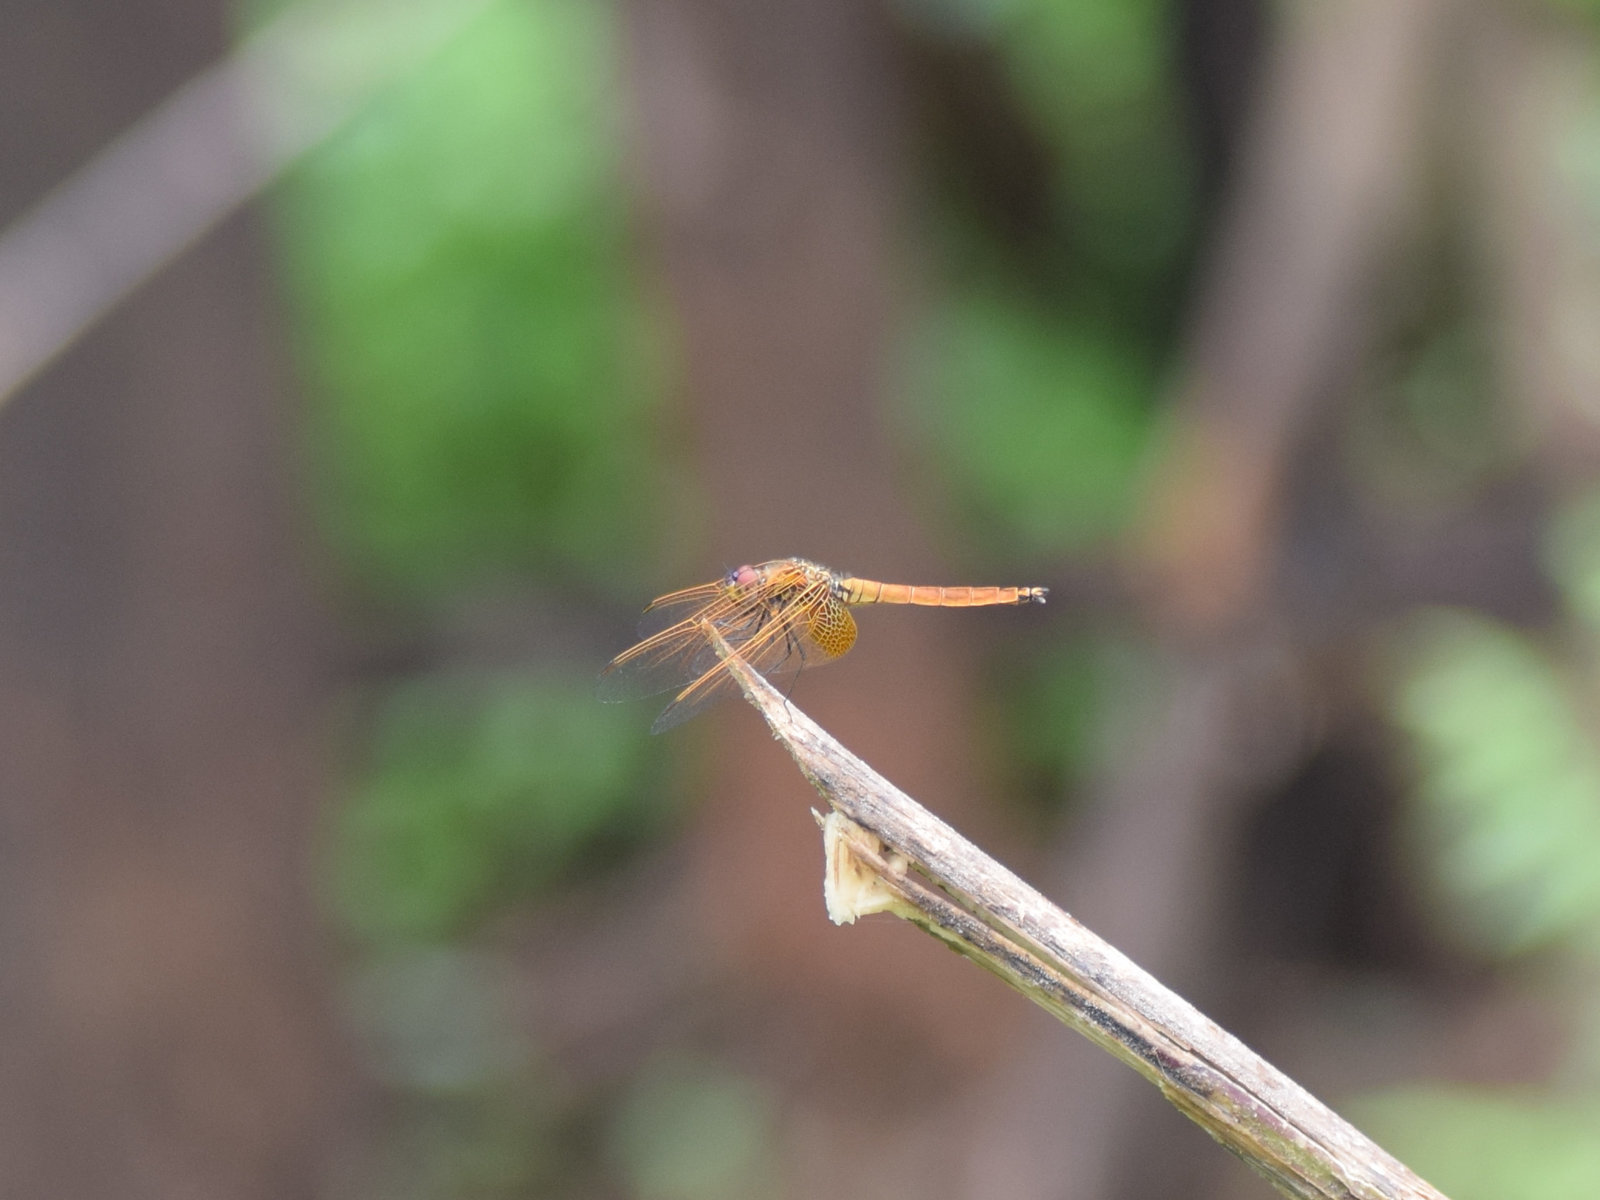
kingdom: Animalia
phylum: Arthropoda
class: Insecta
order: Odonata
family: Libellulidae
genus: Trithemis
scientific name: Trithemis aurora
